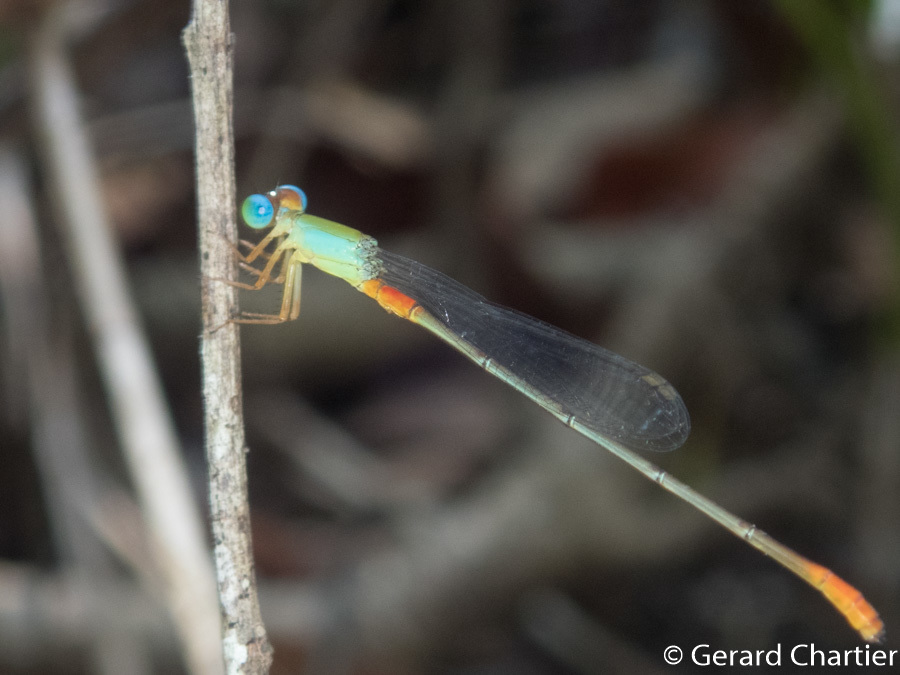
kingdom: Animalia
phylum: Arthropoda
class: Insecta
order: Odonata
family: Coenagrionidae
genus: Ceriagrion
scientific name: Ceriagrion cerinorubellum
